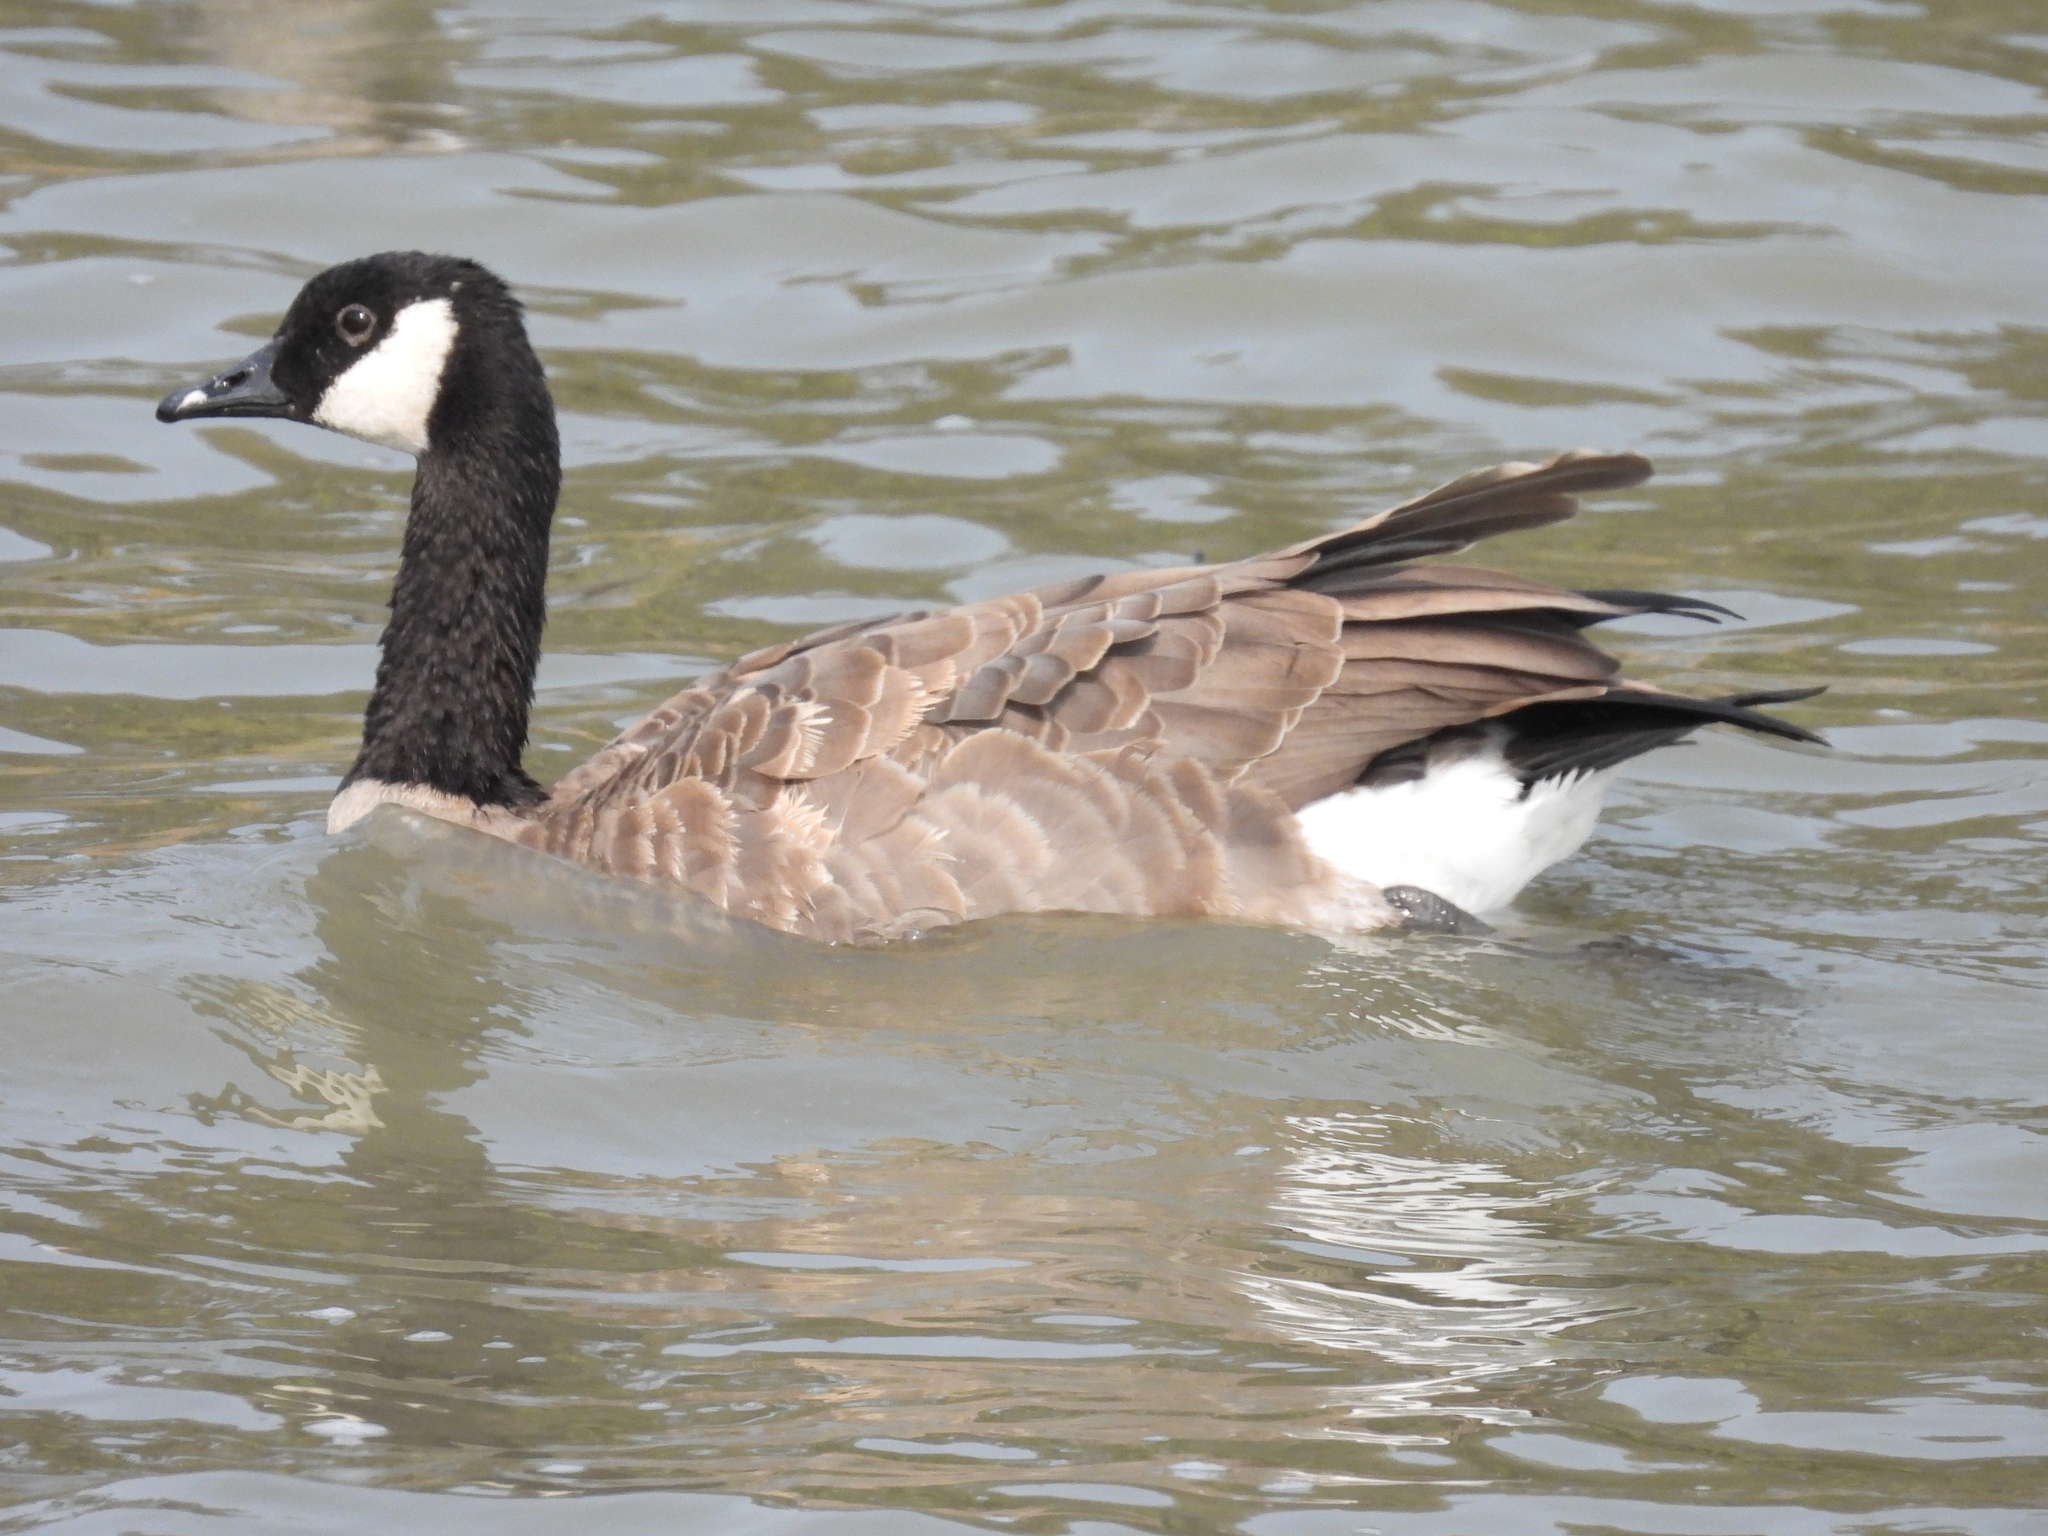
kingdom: Animalia
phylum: Chordata
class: Aves
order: Anseriformes
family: Anatidae
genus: Branta
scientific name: Branta canadensis
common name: Canada goose
